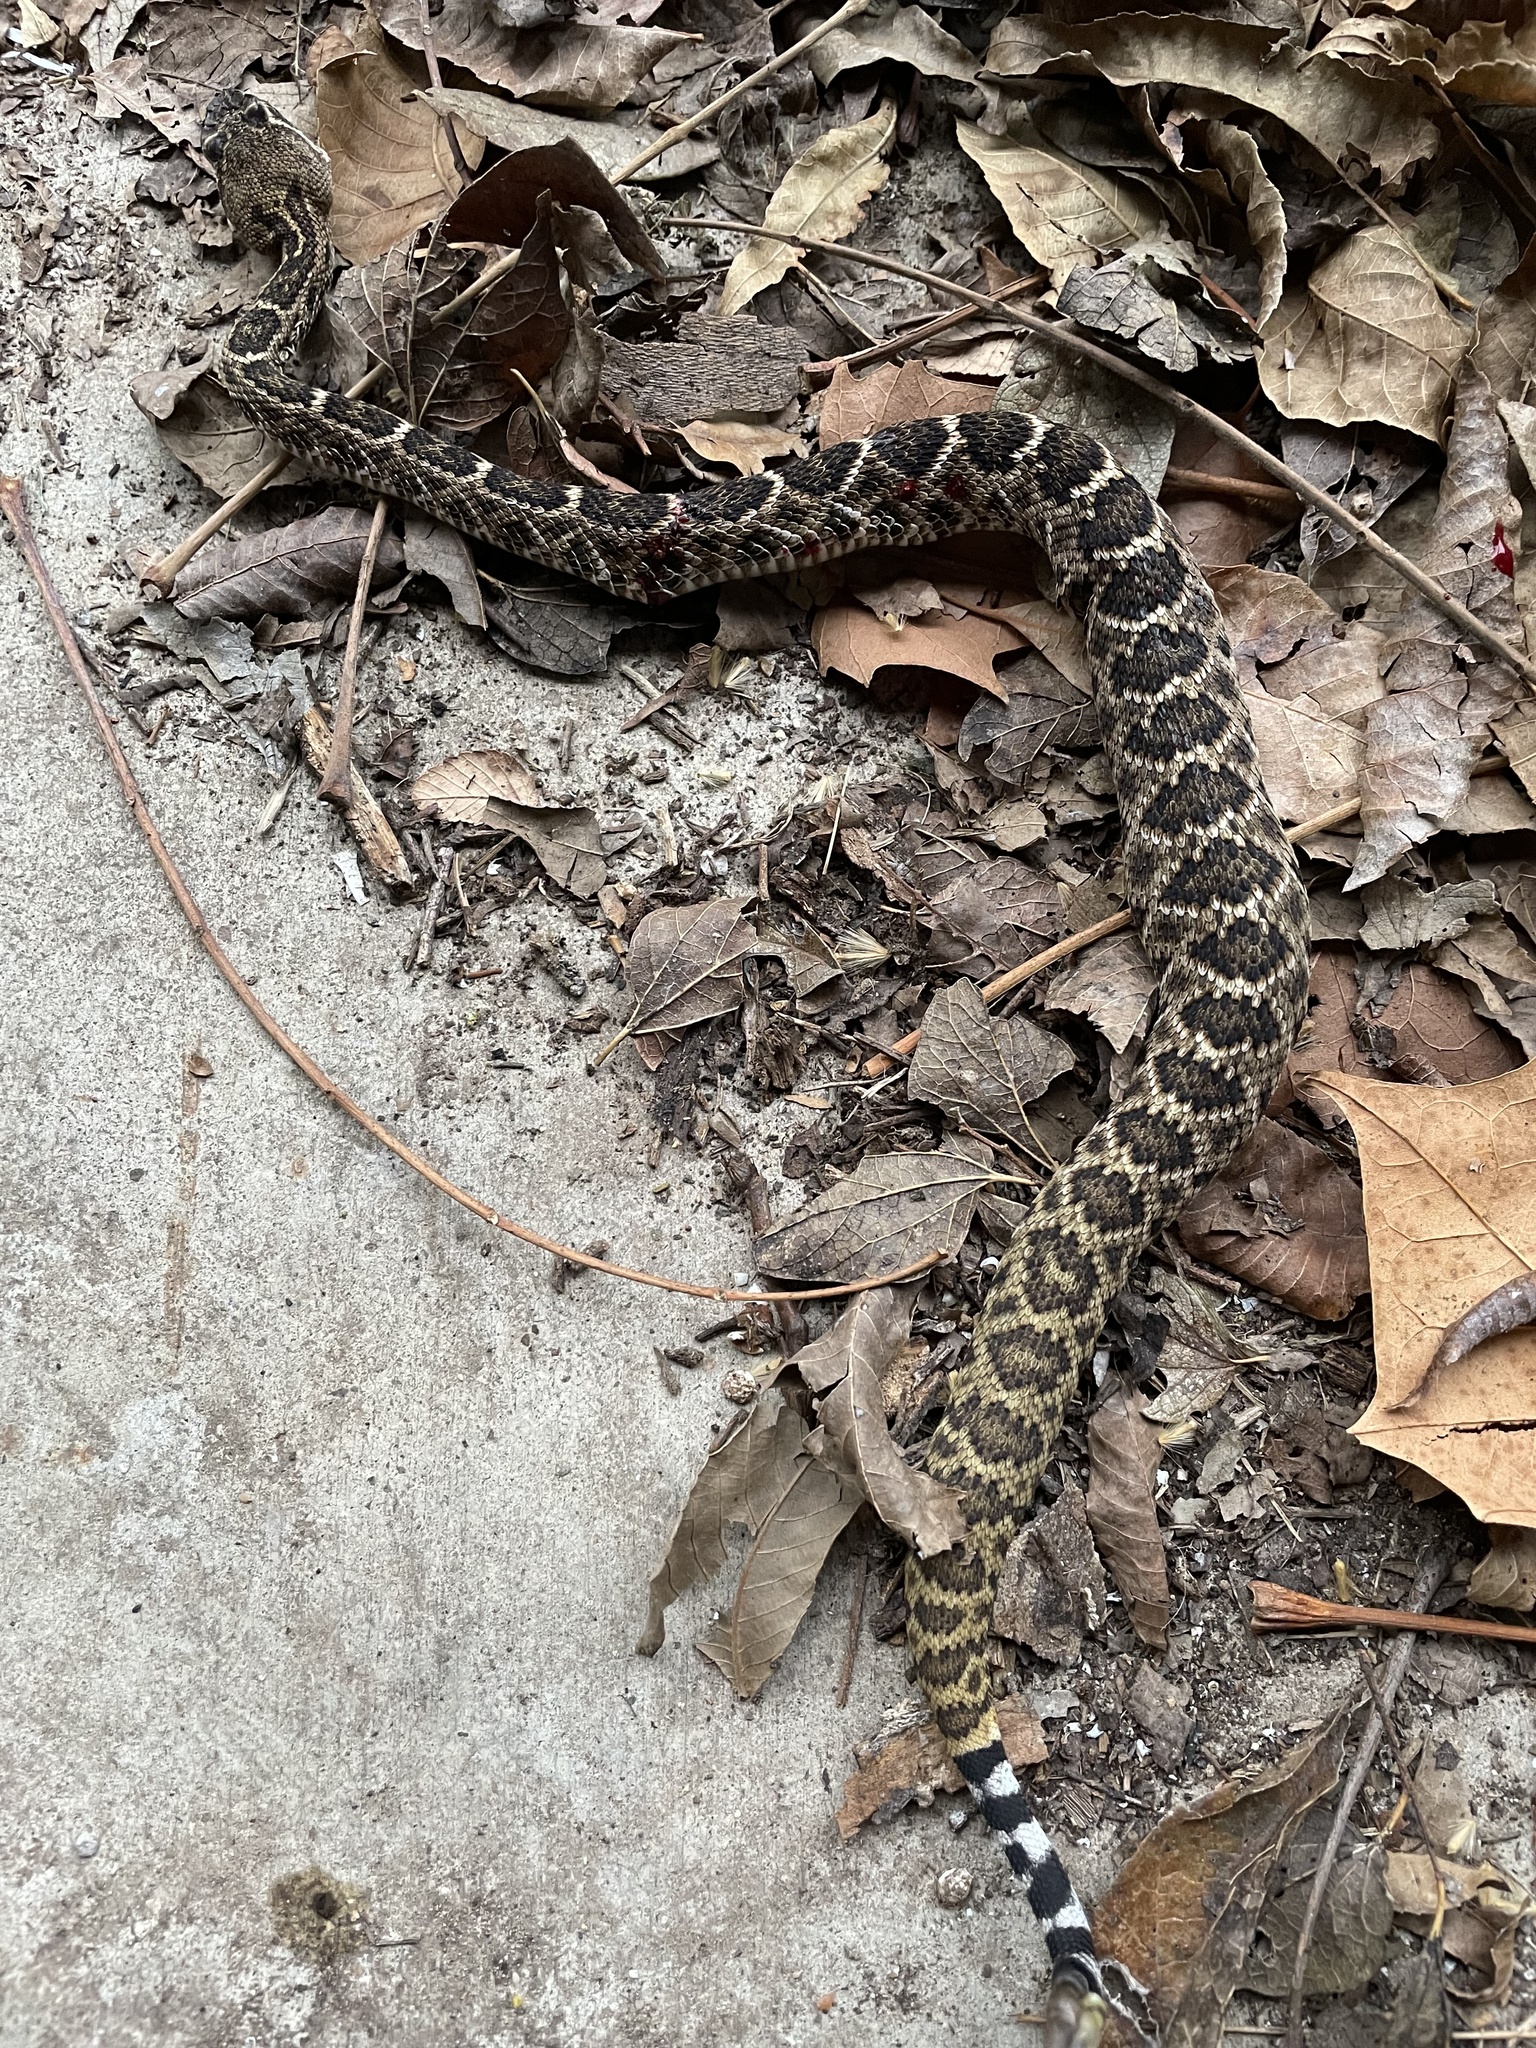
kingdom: Animalia
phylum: Chordata
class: Squamata
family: Viperidae
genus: Crotalus
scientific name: Crotalus atrox
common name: Western diamond-backed rattlesnake
